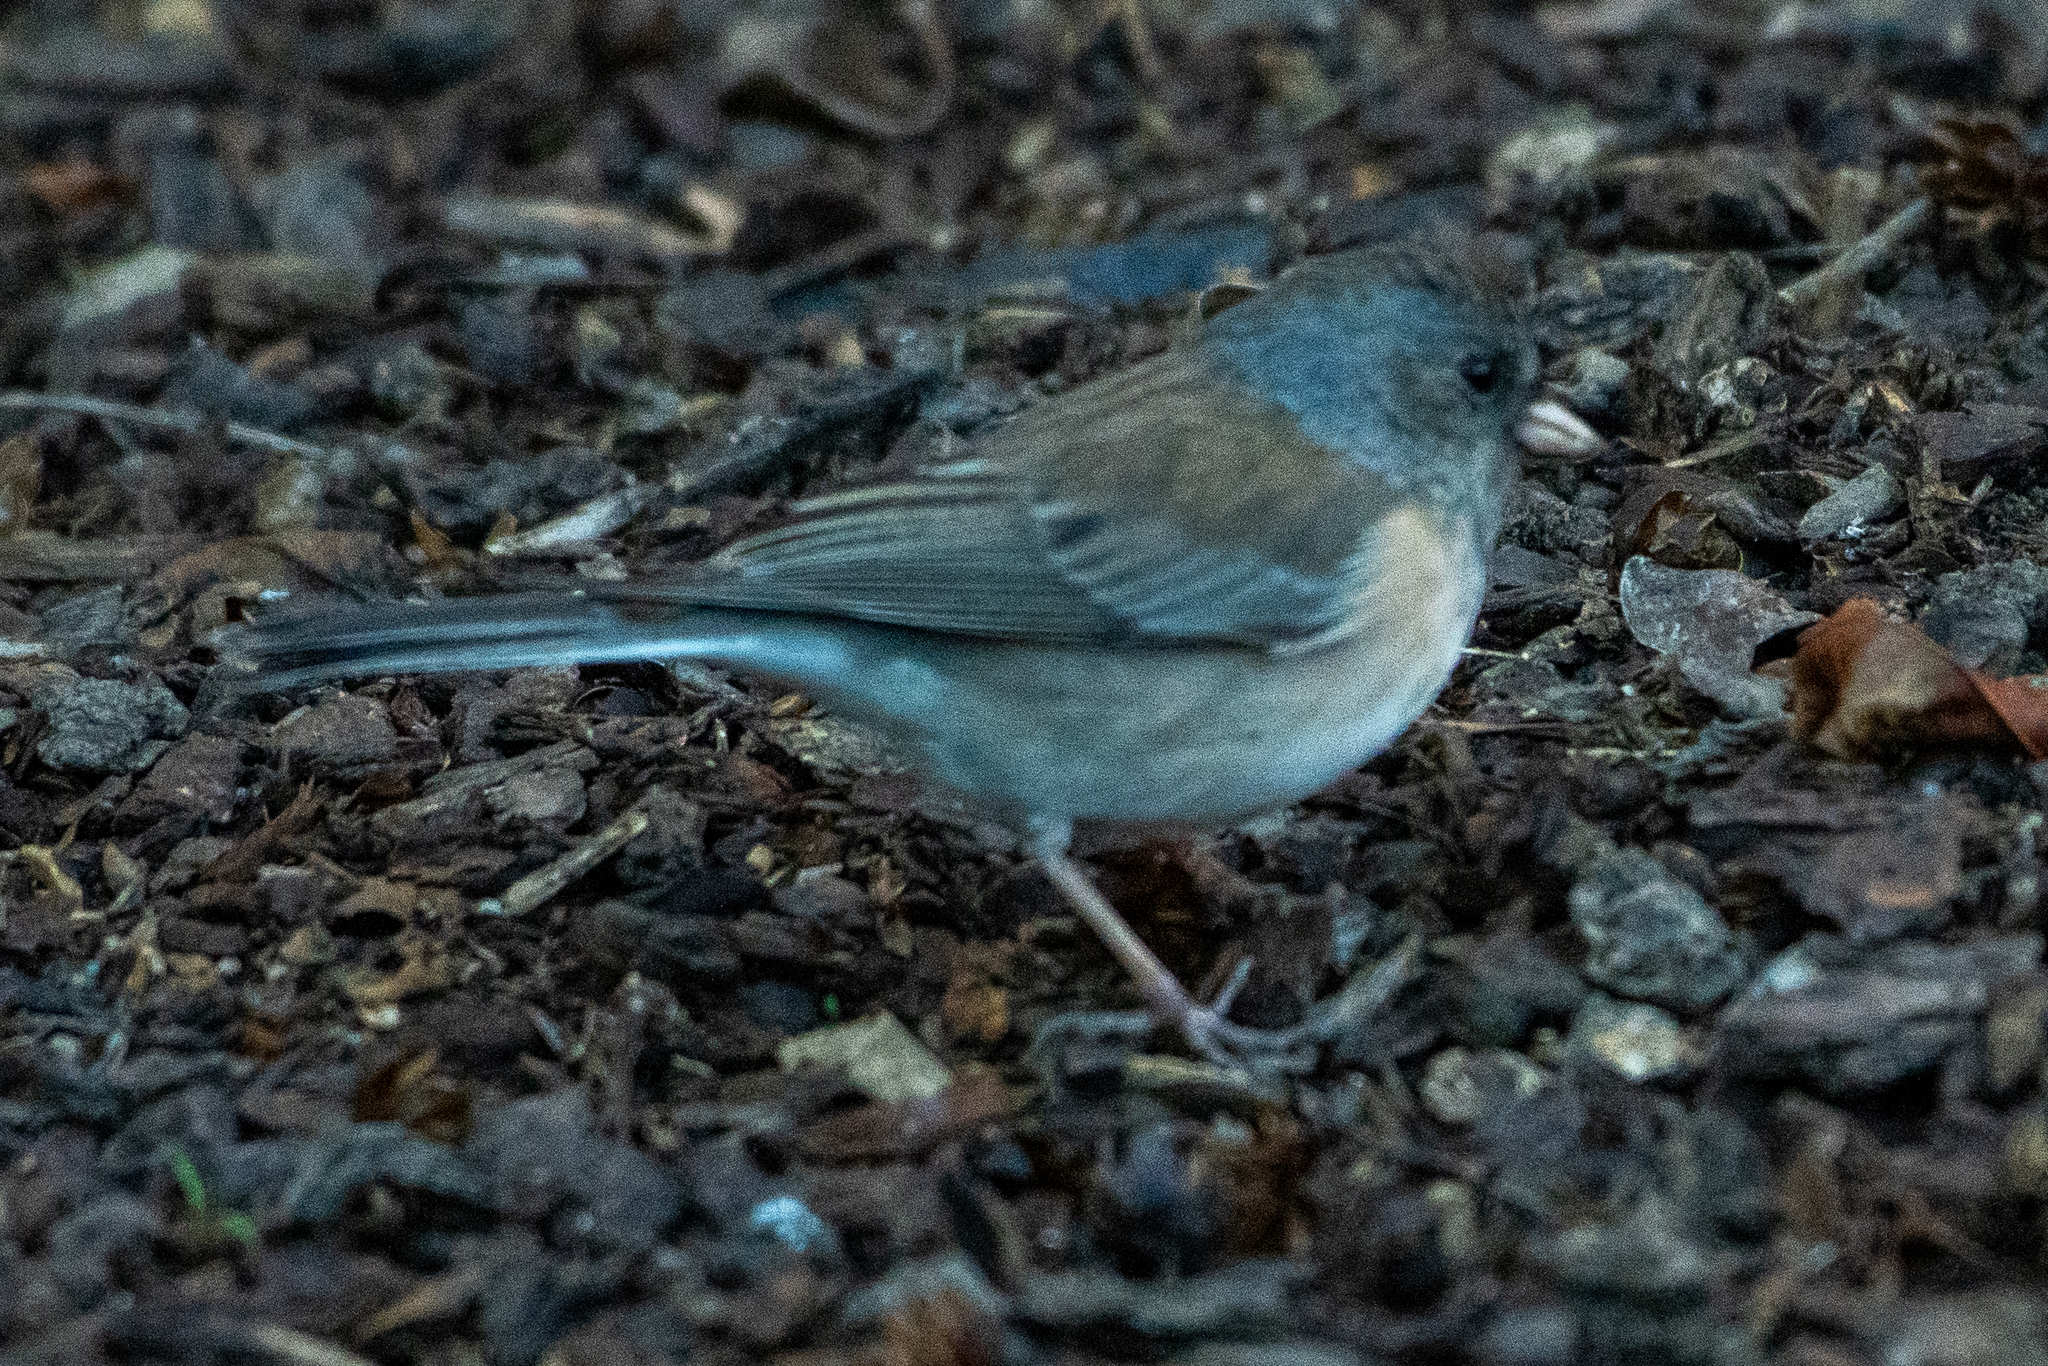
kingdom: Animalia
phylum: Chordata
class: Aves
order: Passeriformes
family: Passerellidae
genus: Junco
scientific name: Junco hyemalis
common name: Dark-eyed junco
